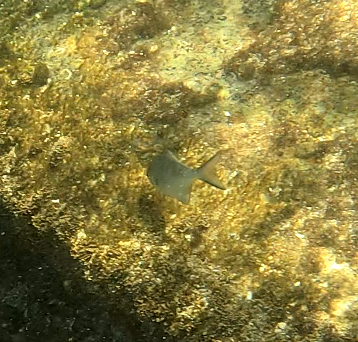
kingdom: Animalia
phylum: Chordata
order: Perciformes
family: Kyphosidae
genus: Scorpis
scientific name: Scorpis lineolata
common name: Sweep
